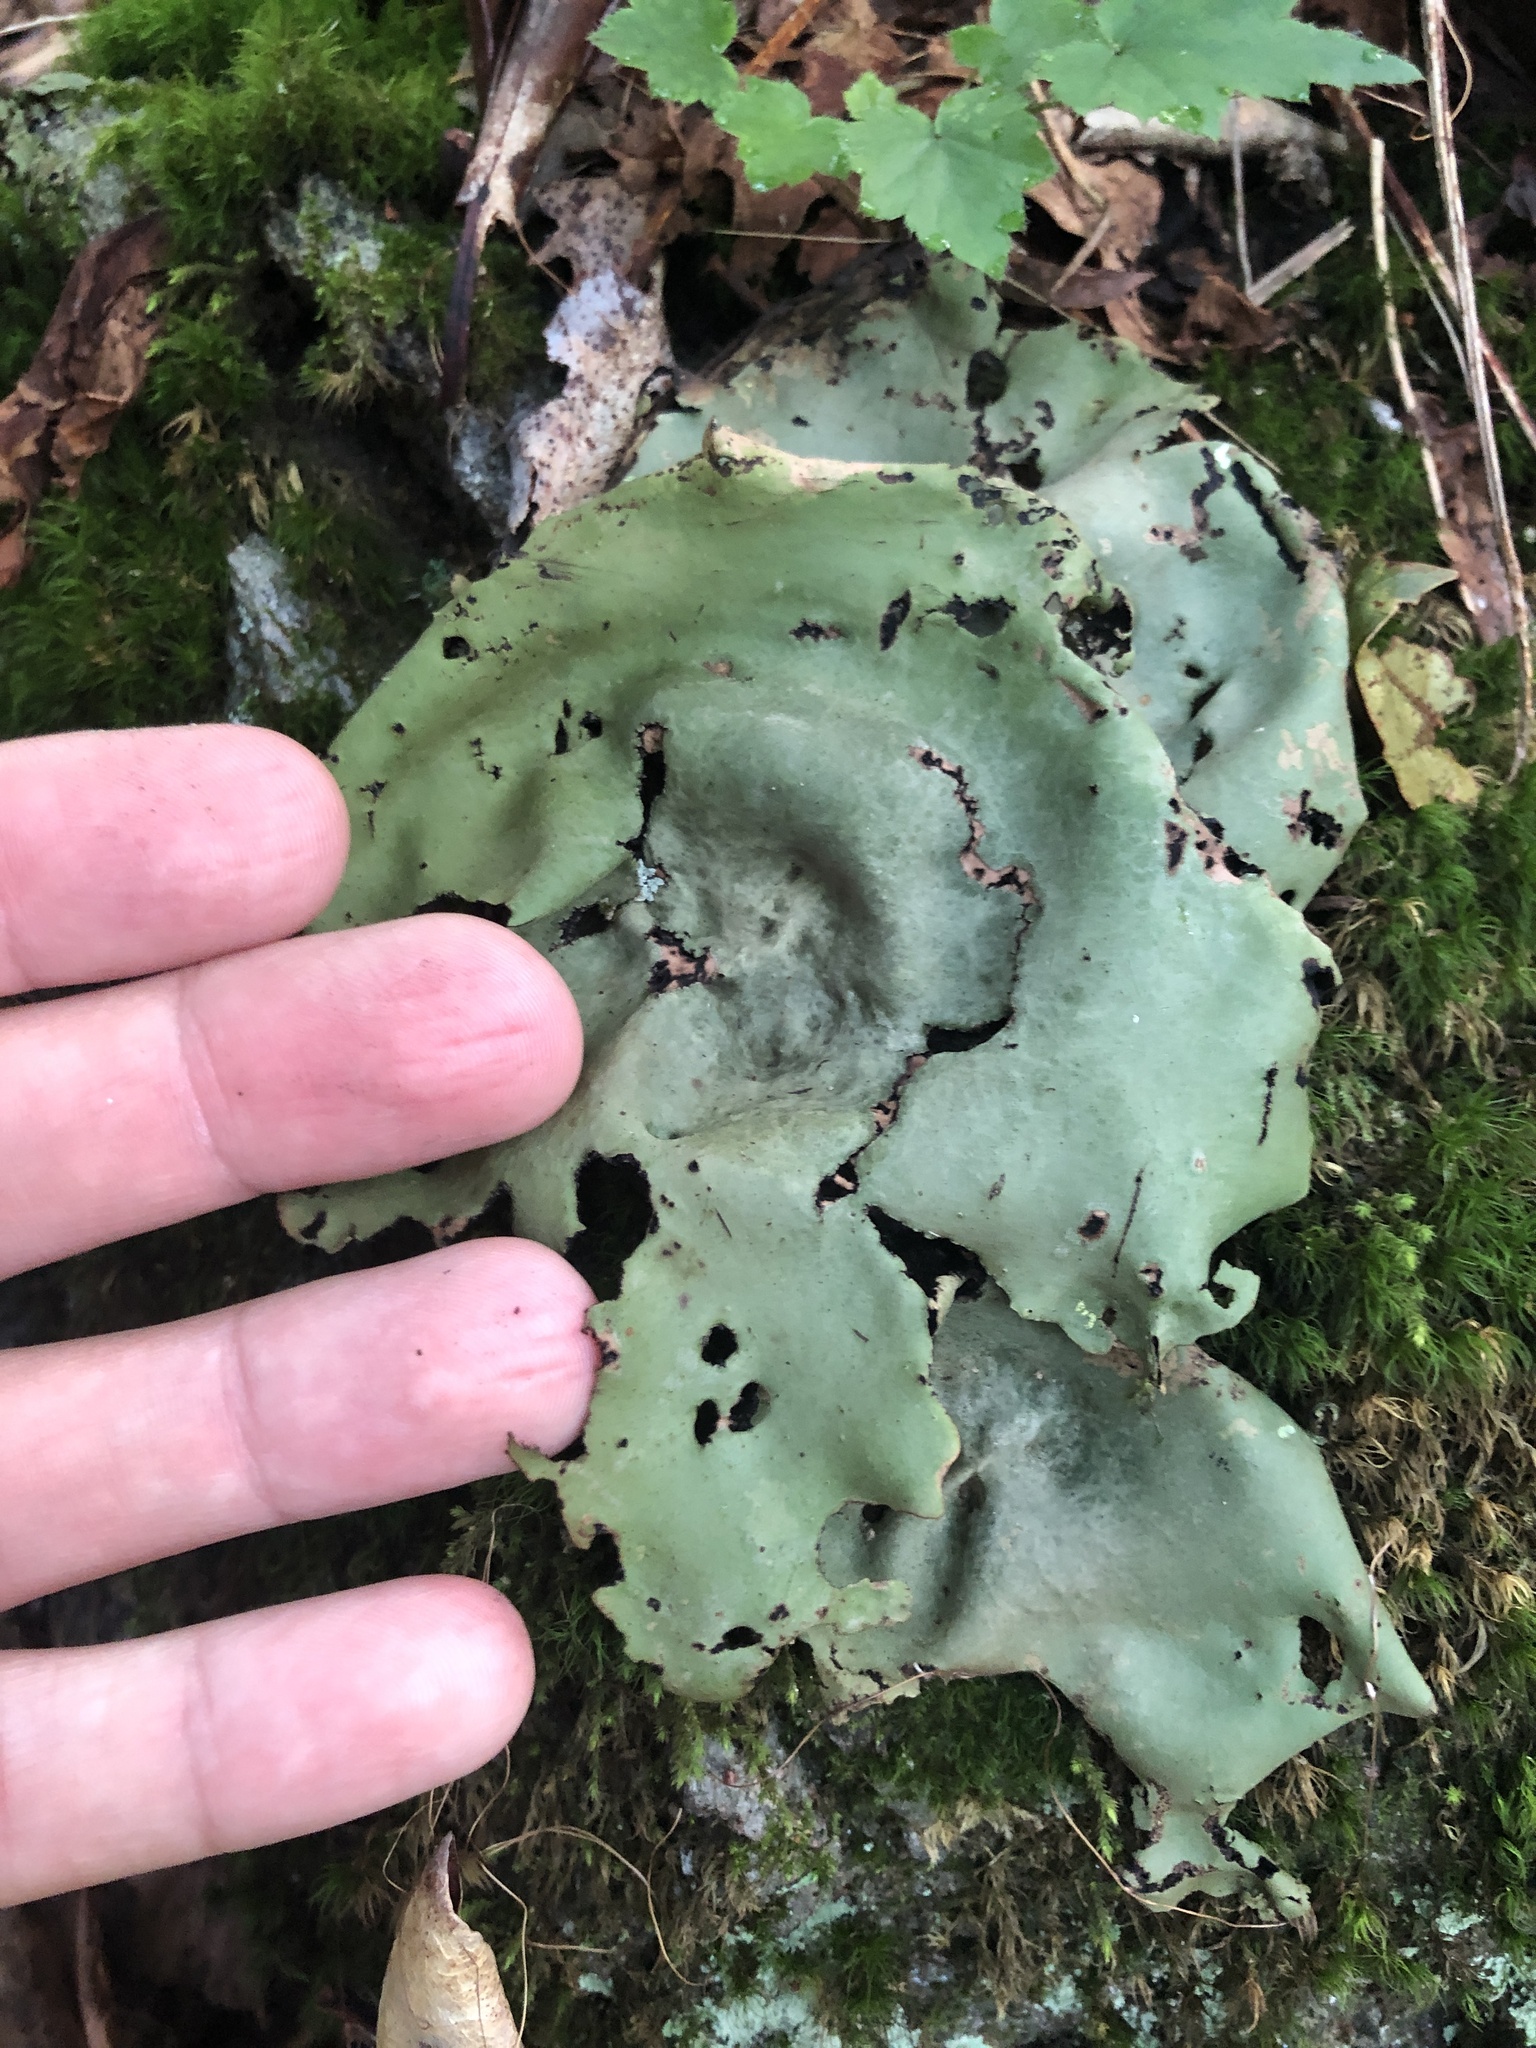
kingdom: Fungi
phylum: Ascomycota
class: Lecanoromycetes
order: Umbilicariales
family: Umbilicariaceae
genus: Umbilicaria
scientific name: Umbilicaria mammulata
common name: Smooth rock tripe
